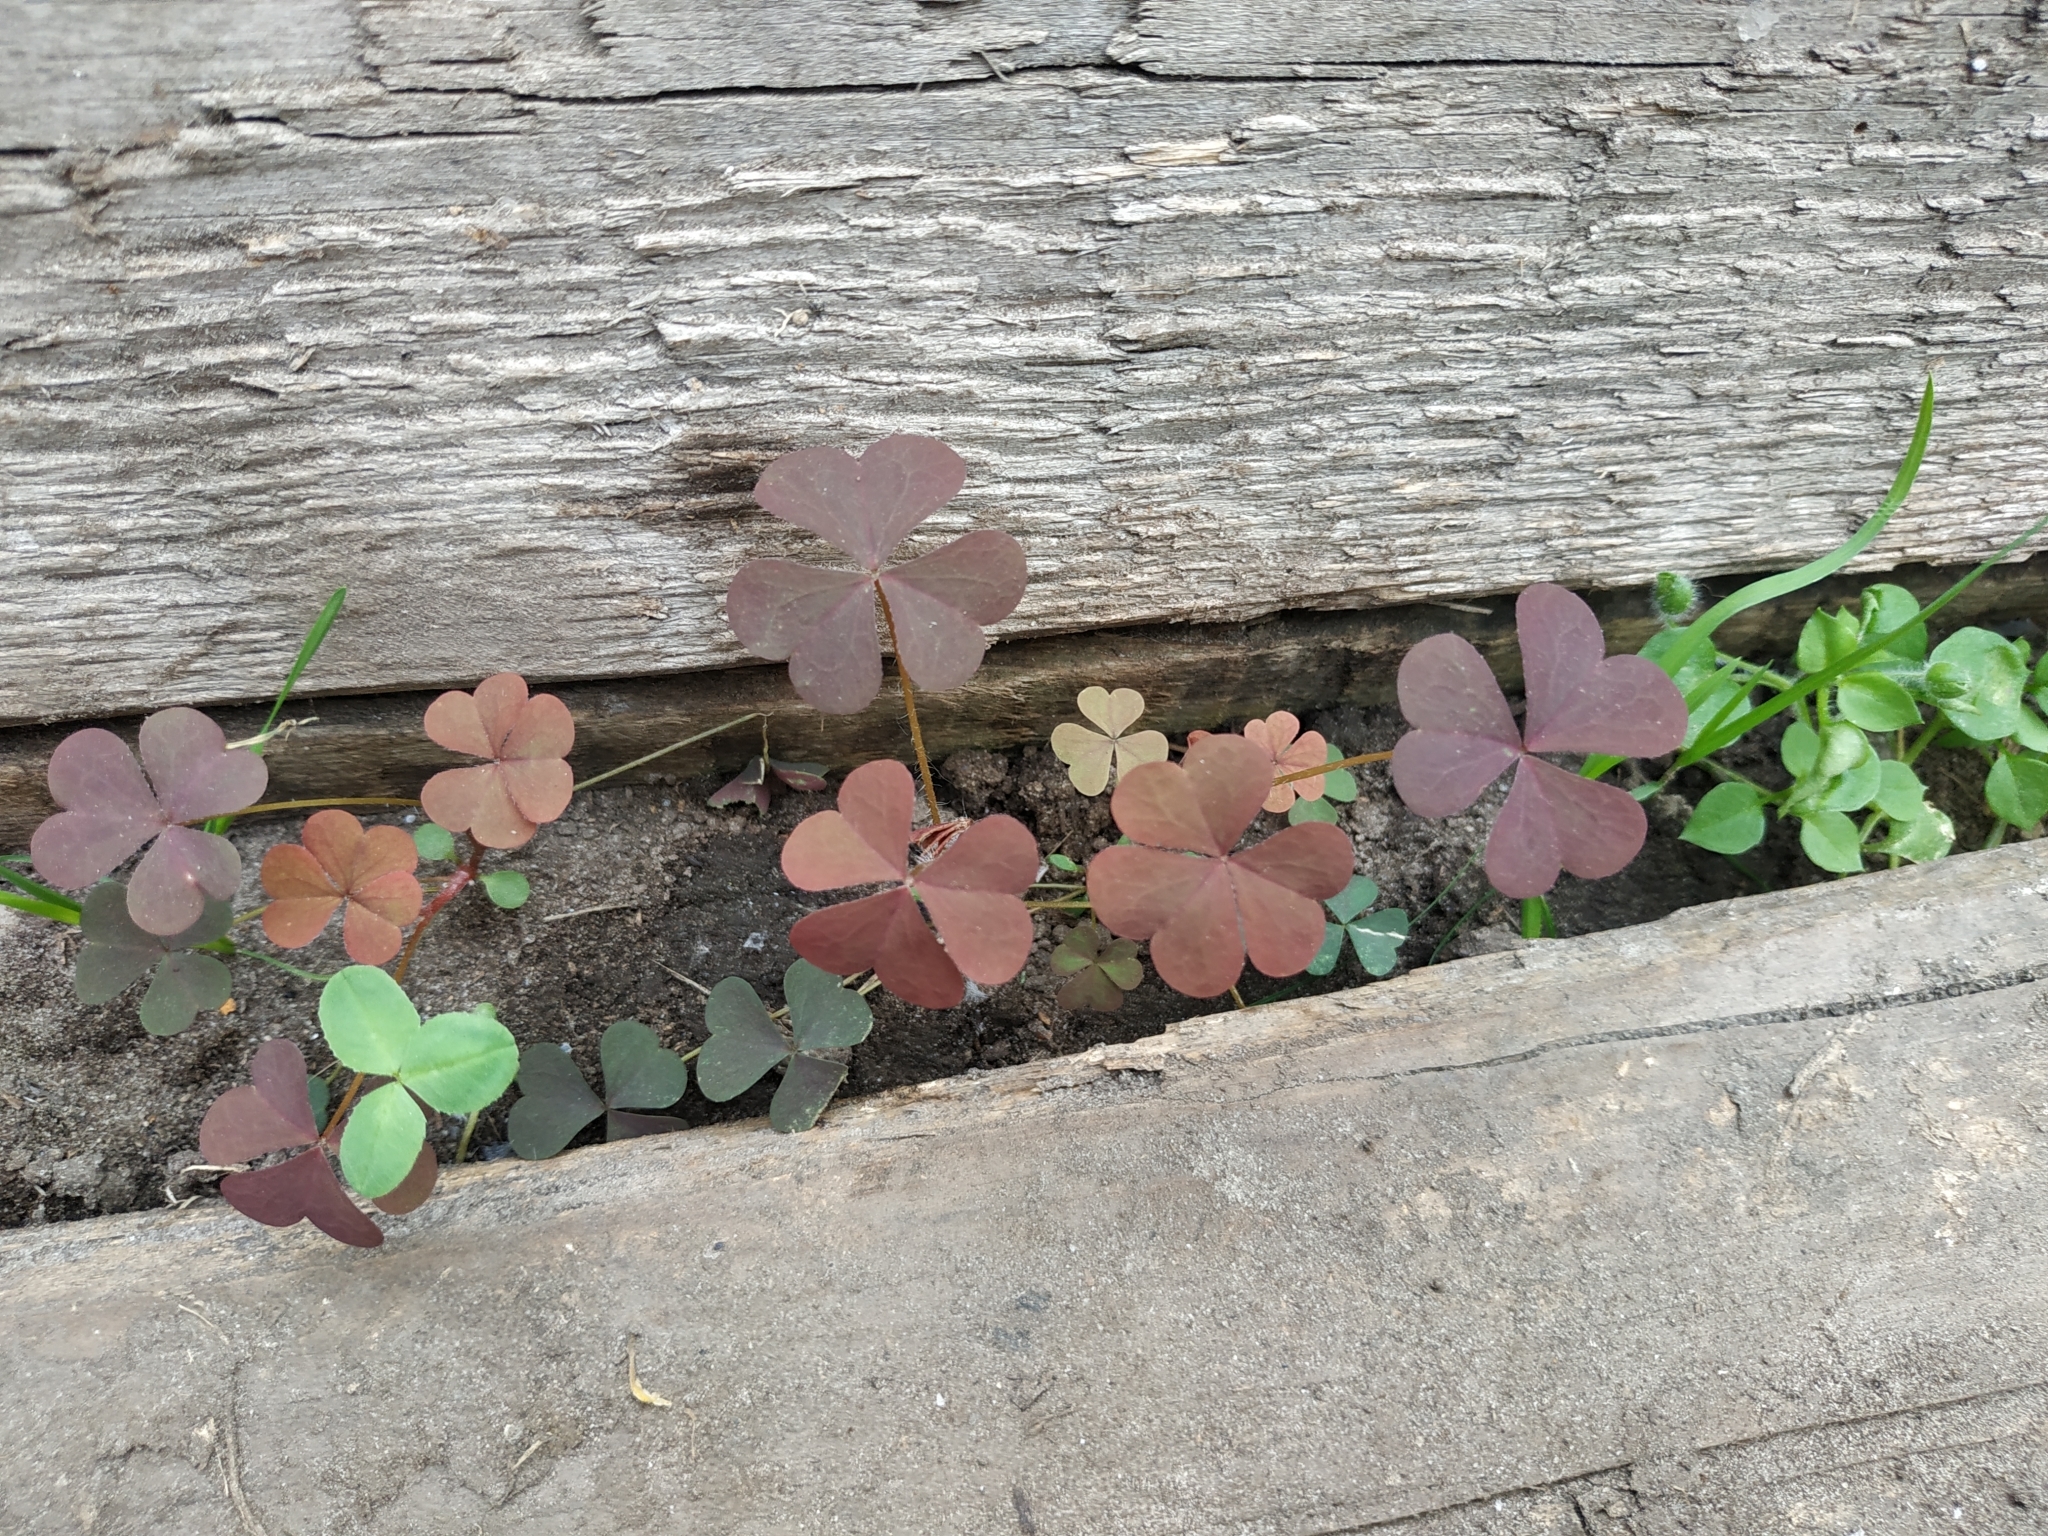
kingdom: Plantae
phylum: Tracheophyta
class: Magnoliopsida
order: Oxalidales
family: Oxalidaceae
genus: Oxalis
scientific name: Oxalis stricta
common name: Upright yellow-sorrel
